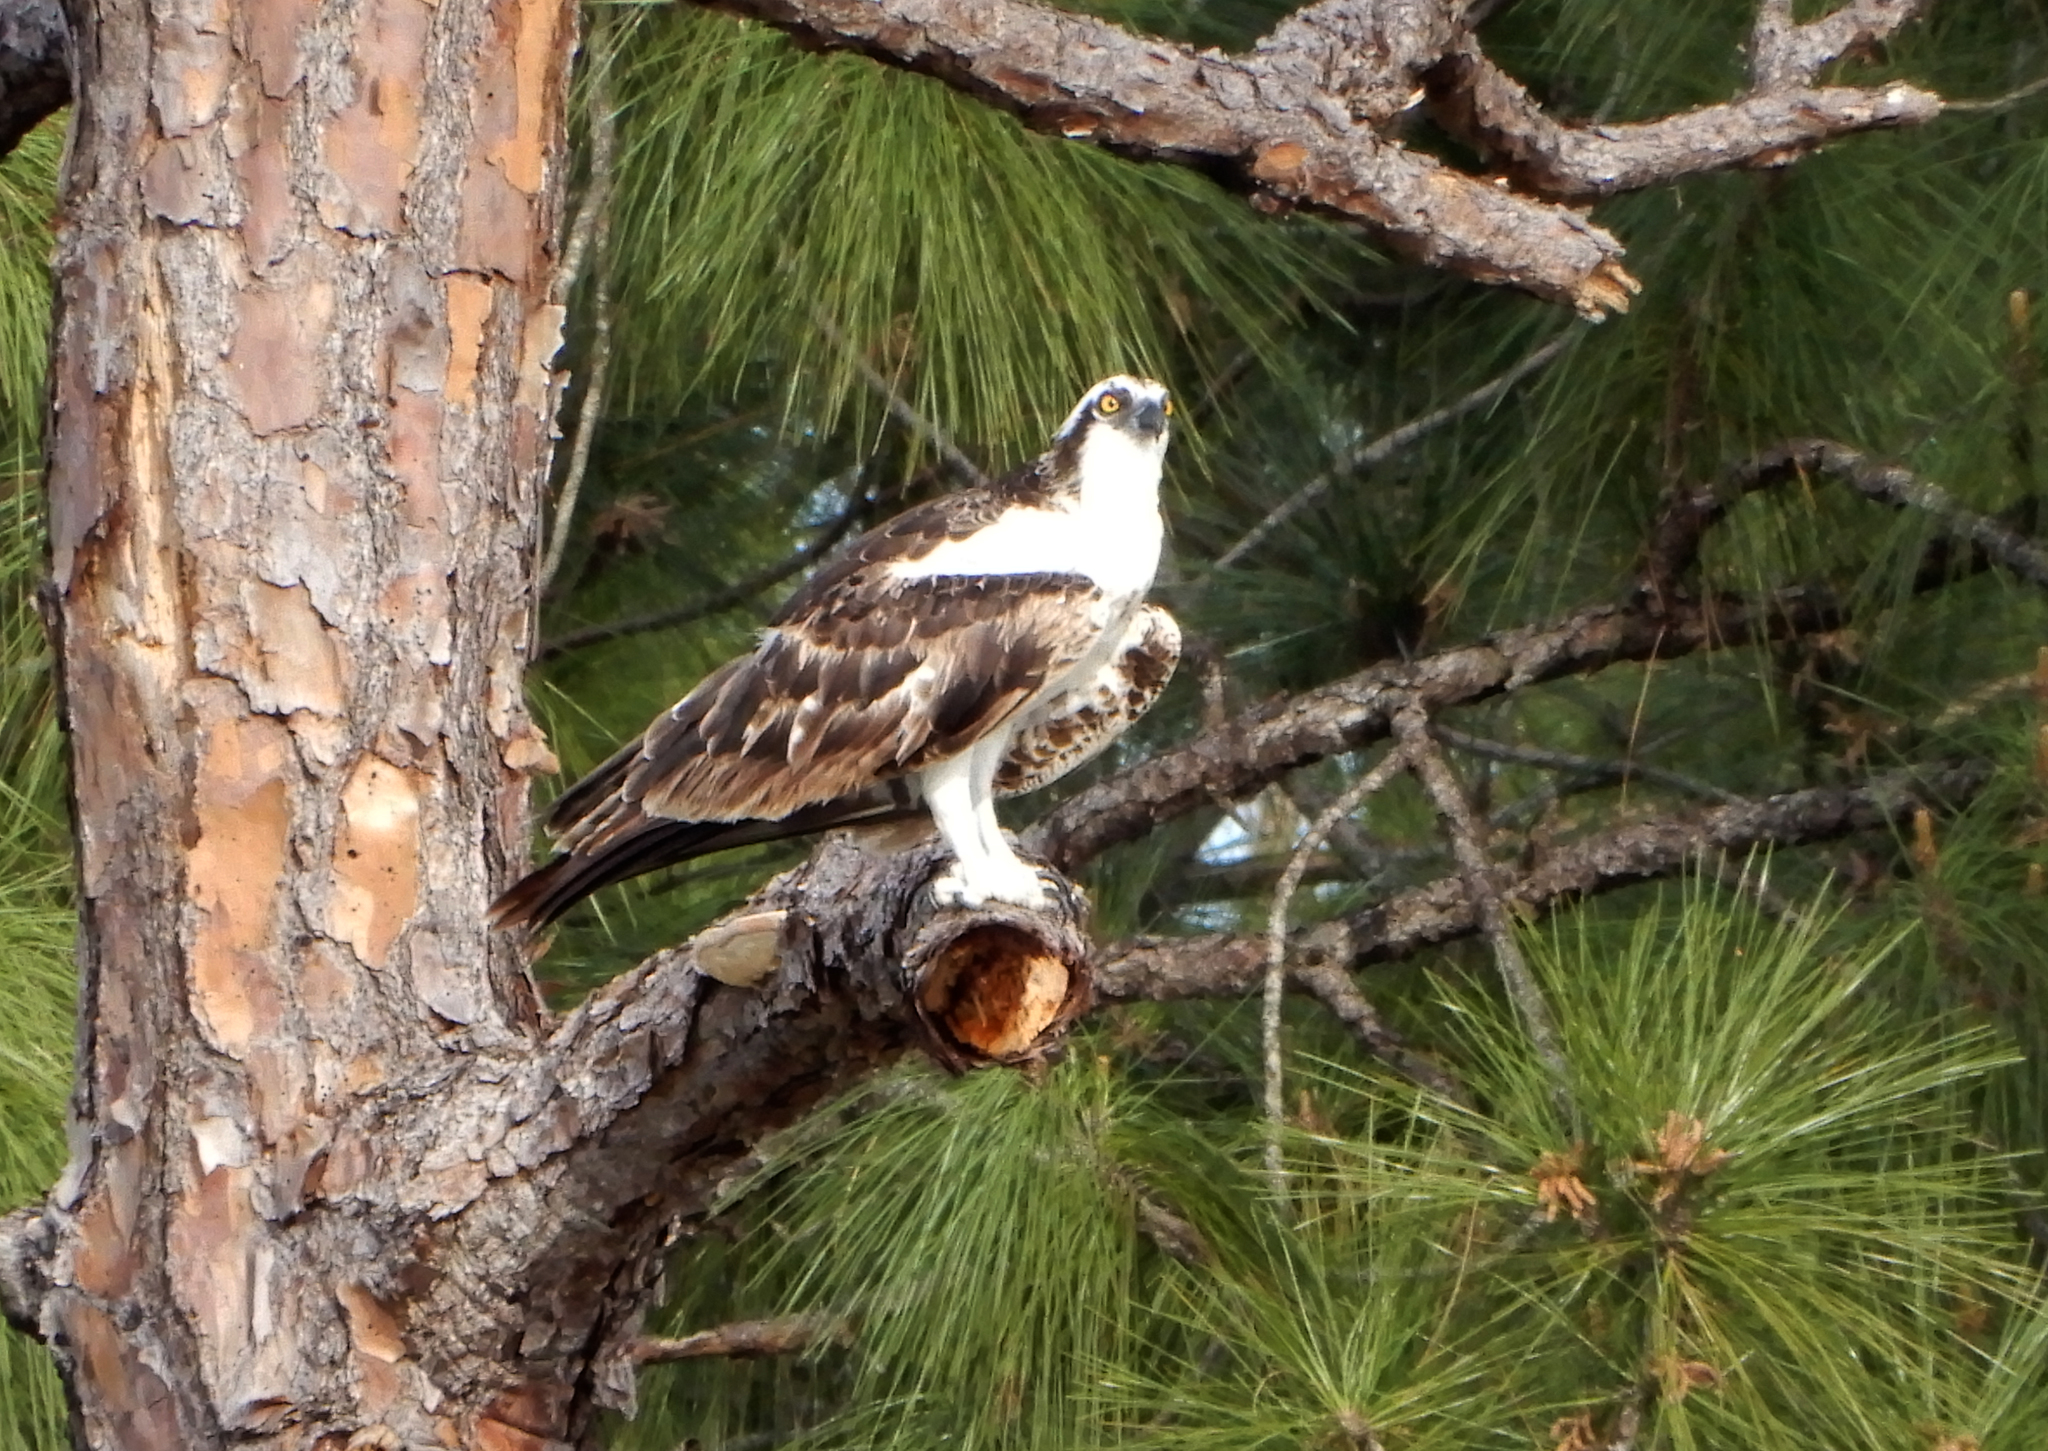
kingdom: Animalia
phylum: Chordata
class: Aves
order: Accipitriformes
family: Pandionidae
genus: Pandion
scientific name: Pandion haliaetus
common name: Osprey
